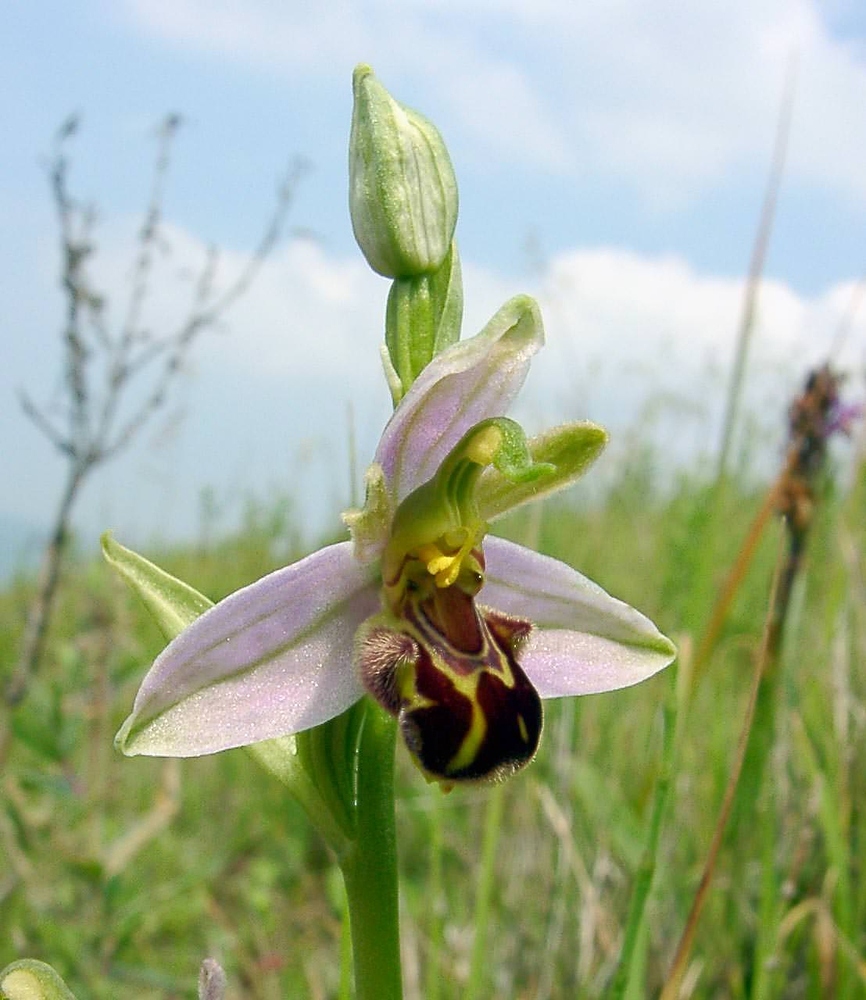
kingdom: Plantae
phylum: Tracheophyta
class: Liliopsida
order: Asparagales
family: Orchidaceae
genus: Ophrys
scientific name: Ophrys apifera
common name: Bee orchid
